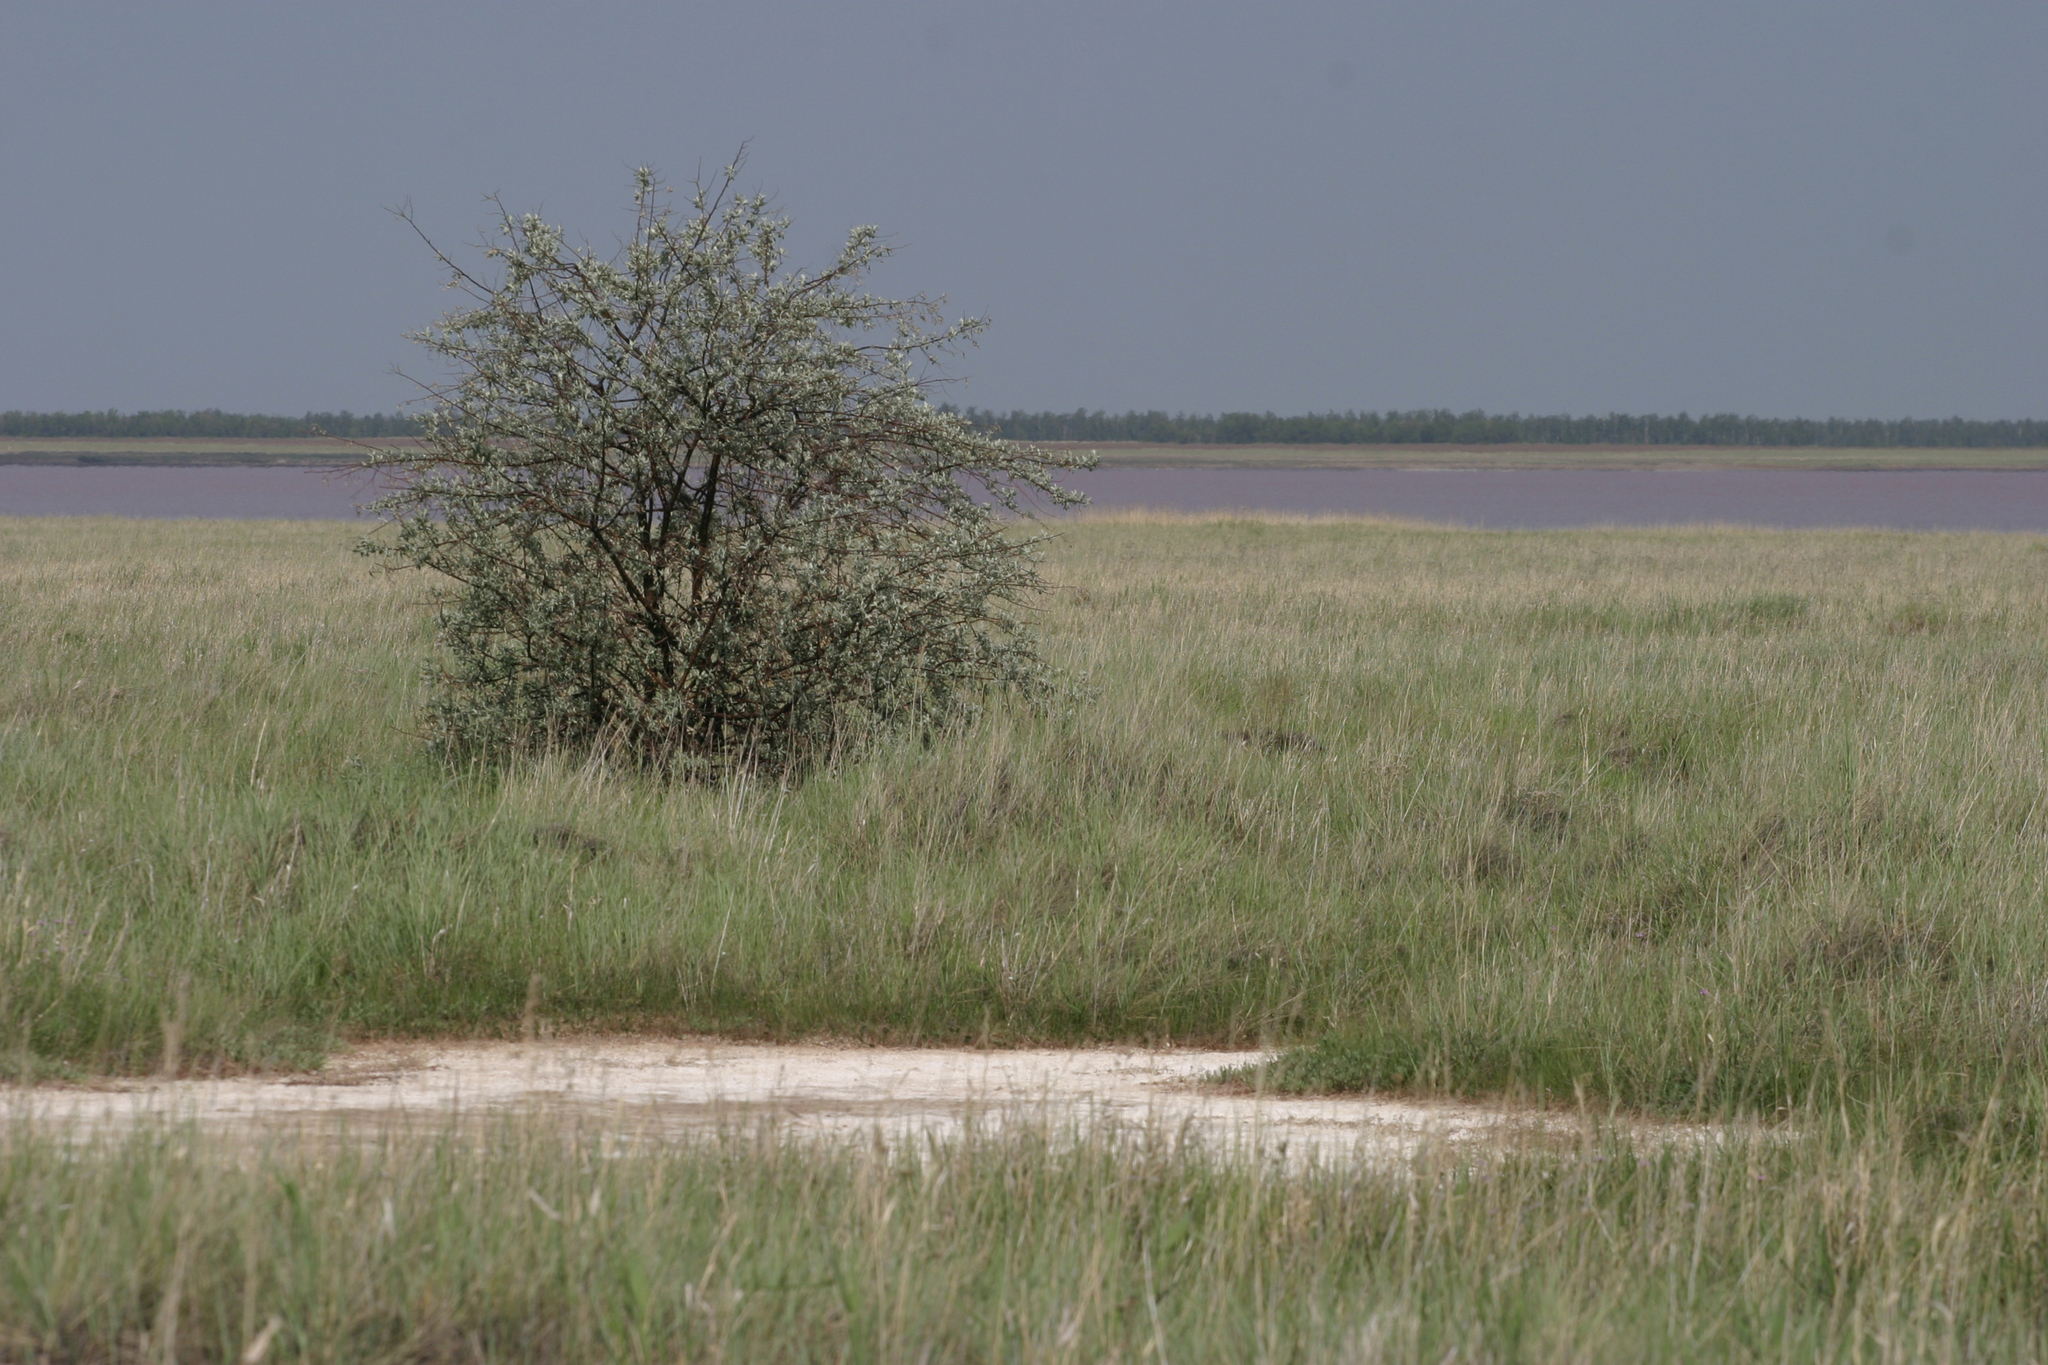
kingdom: Plantae
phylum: Tracheophyta
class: Magnoliopsida
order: Rosales
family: Elaeagnaceae
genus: Elaeagnus
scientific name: Elaeagnus angustifolia
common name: Russian olive
